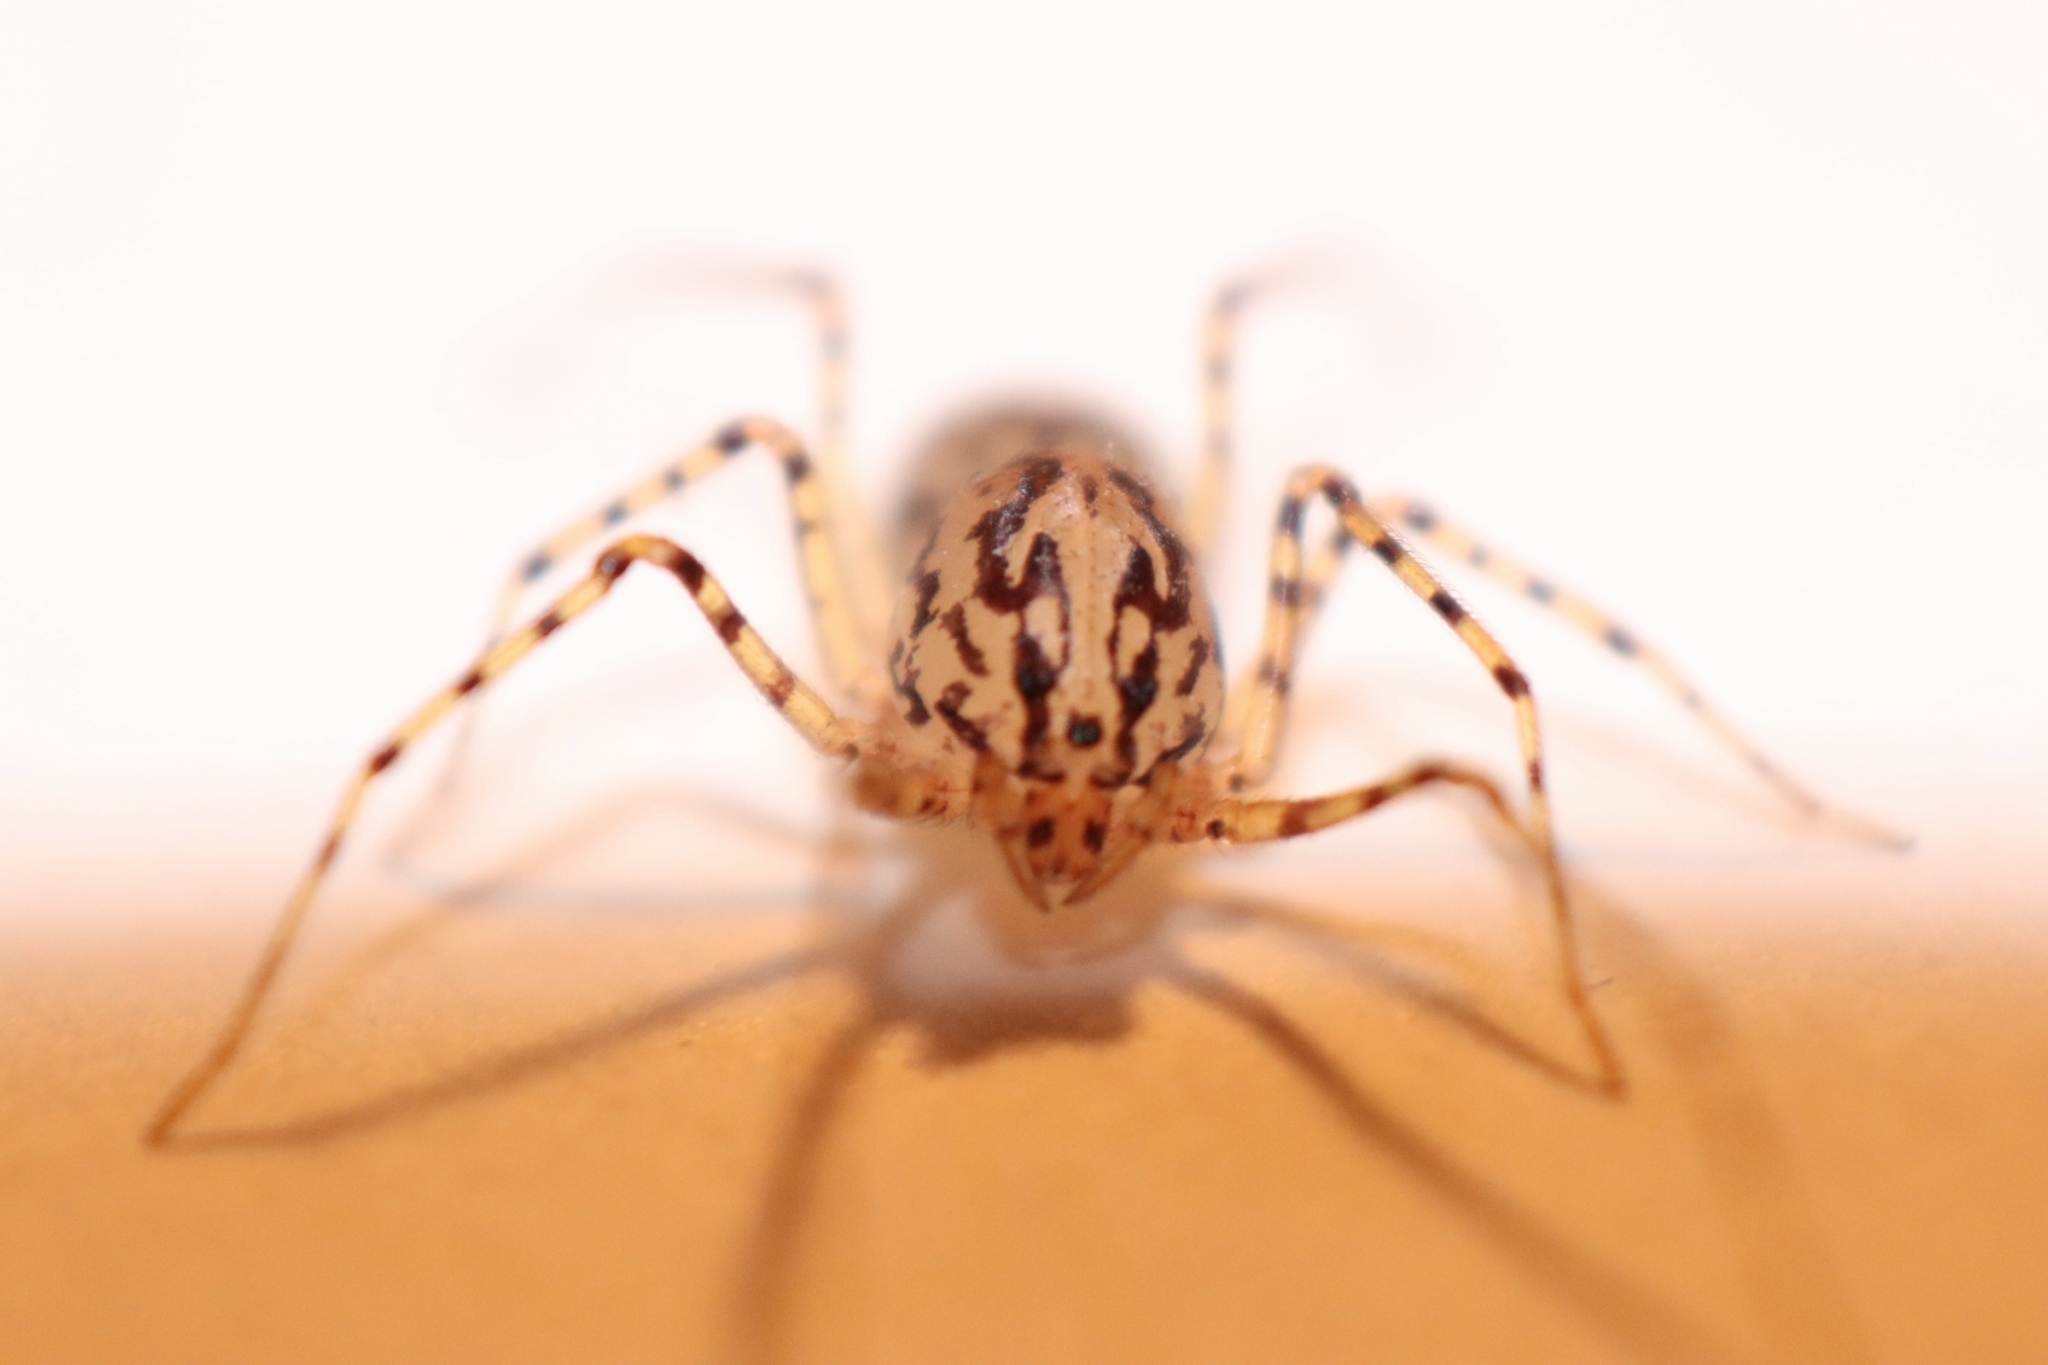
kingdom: Animalia
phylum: Arthropoda
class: Arachnida
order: Araneae
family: Scytodidae
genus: Scytodes
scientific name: Scytodes thoracica
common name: Spitting spider
